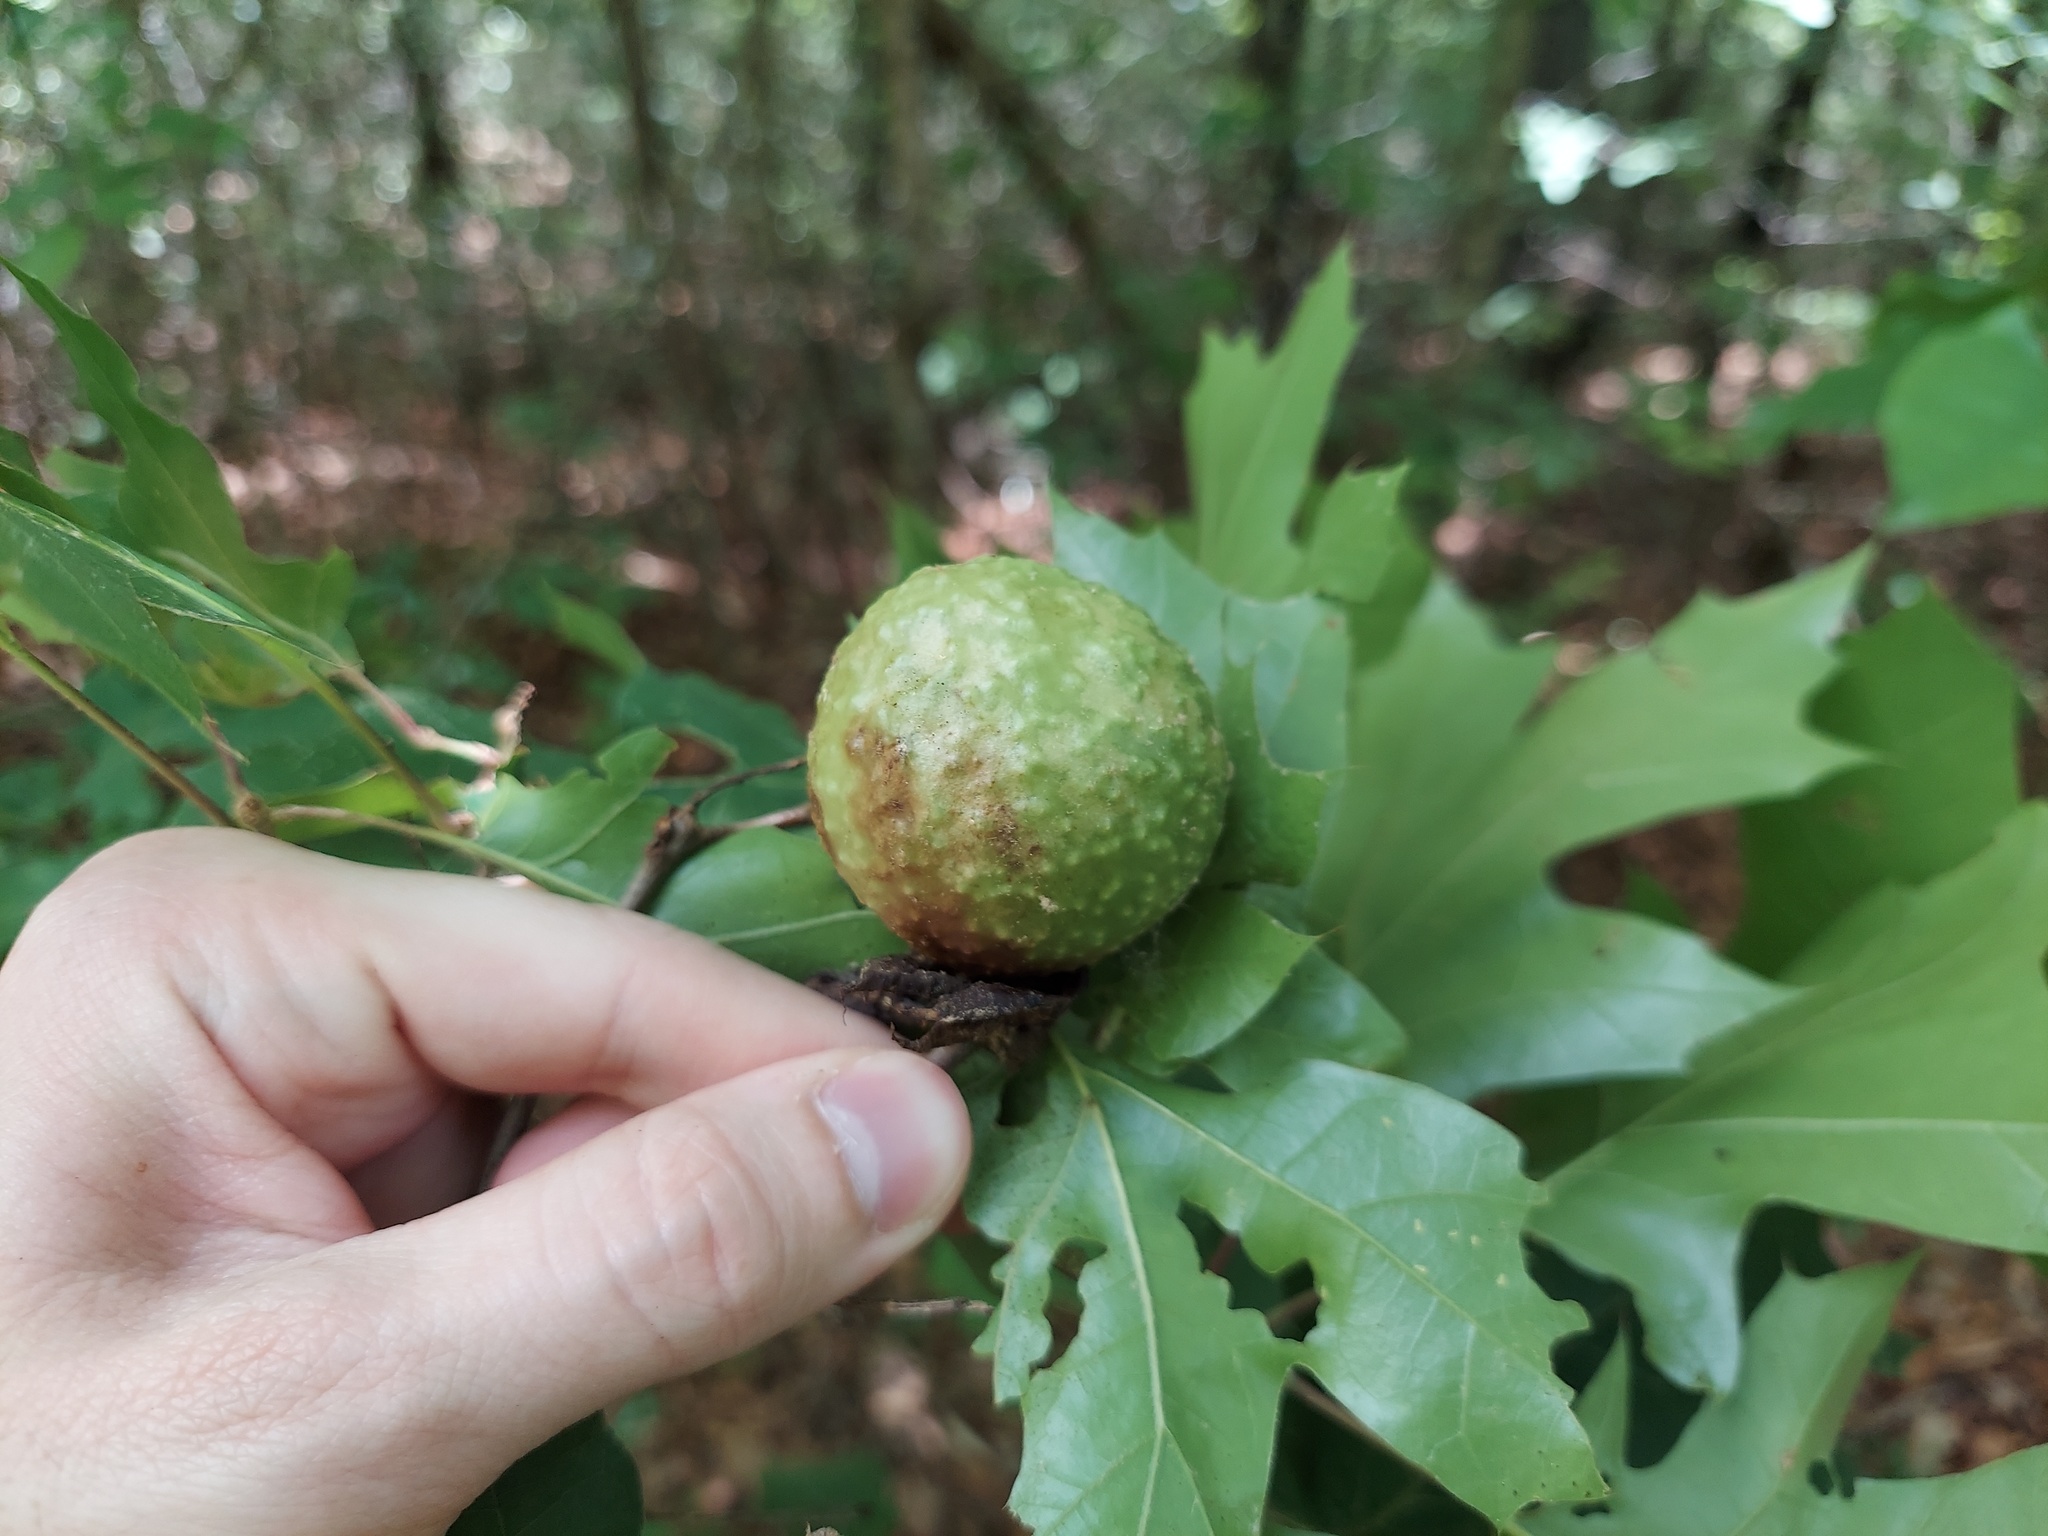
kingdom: Animalia
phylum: Arthropoda
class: Insecta
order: Hymenoptera
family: Cynipidae
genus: Amphibolips
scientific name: Amphibolips
